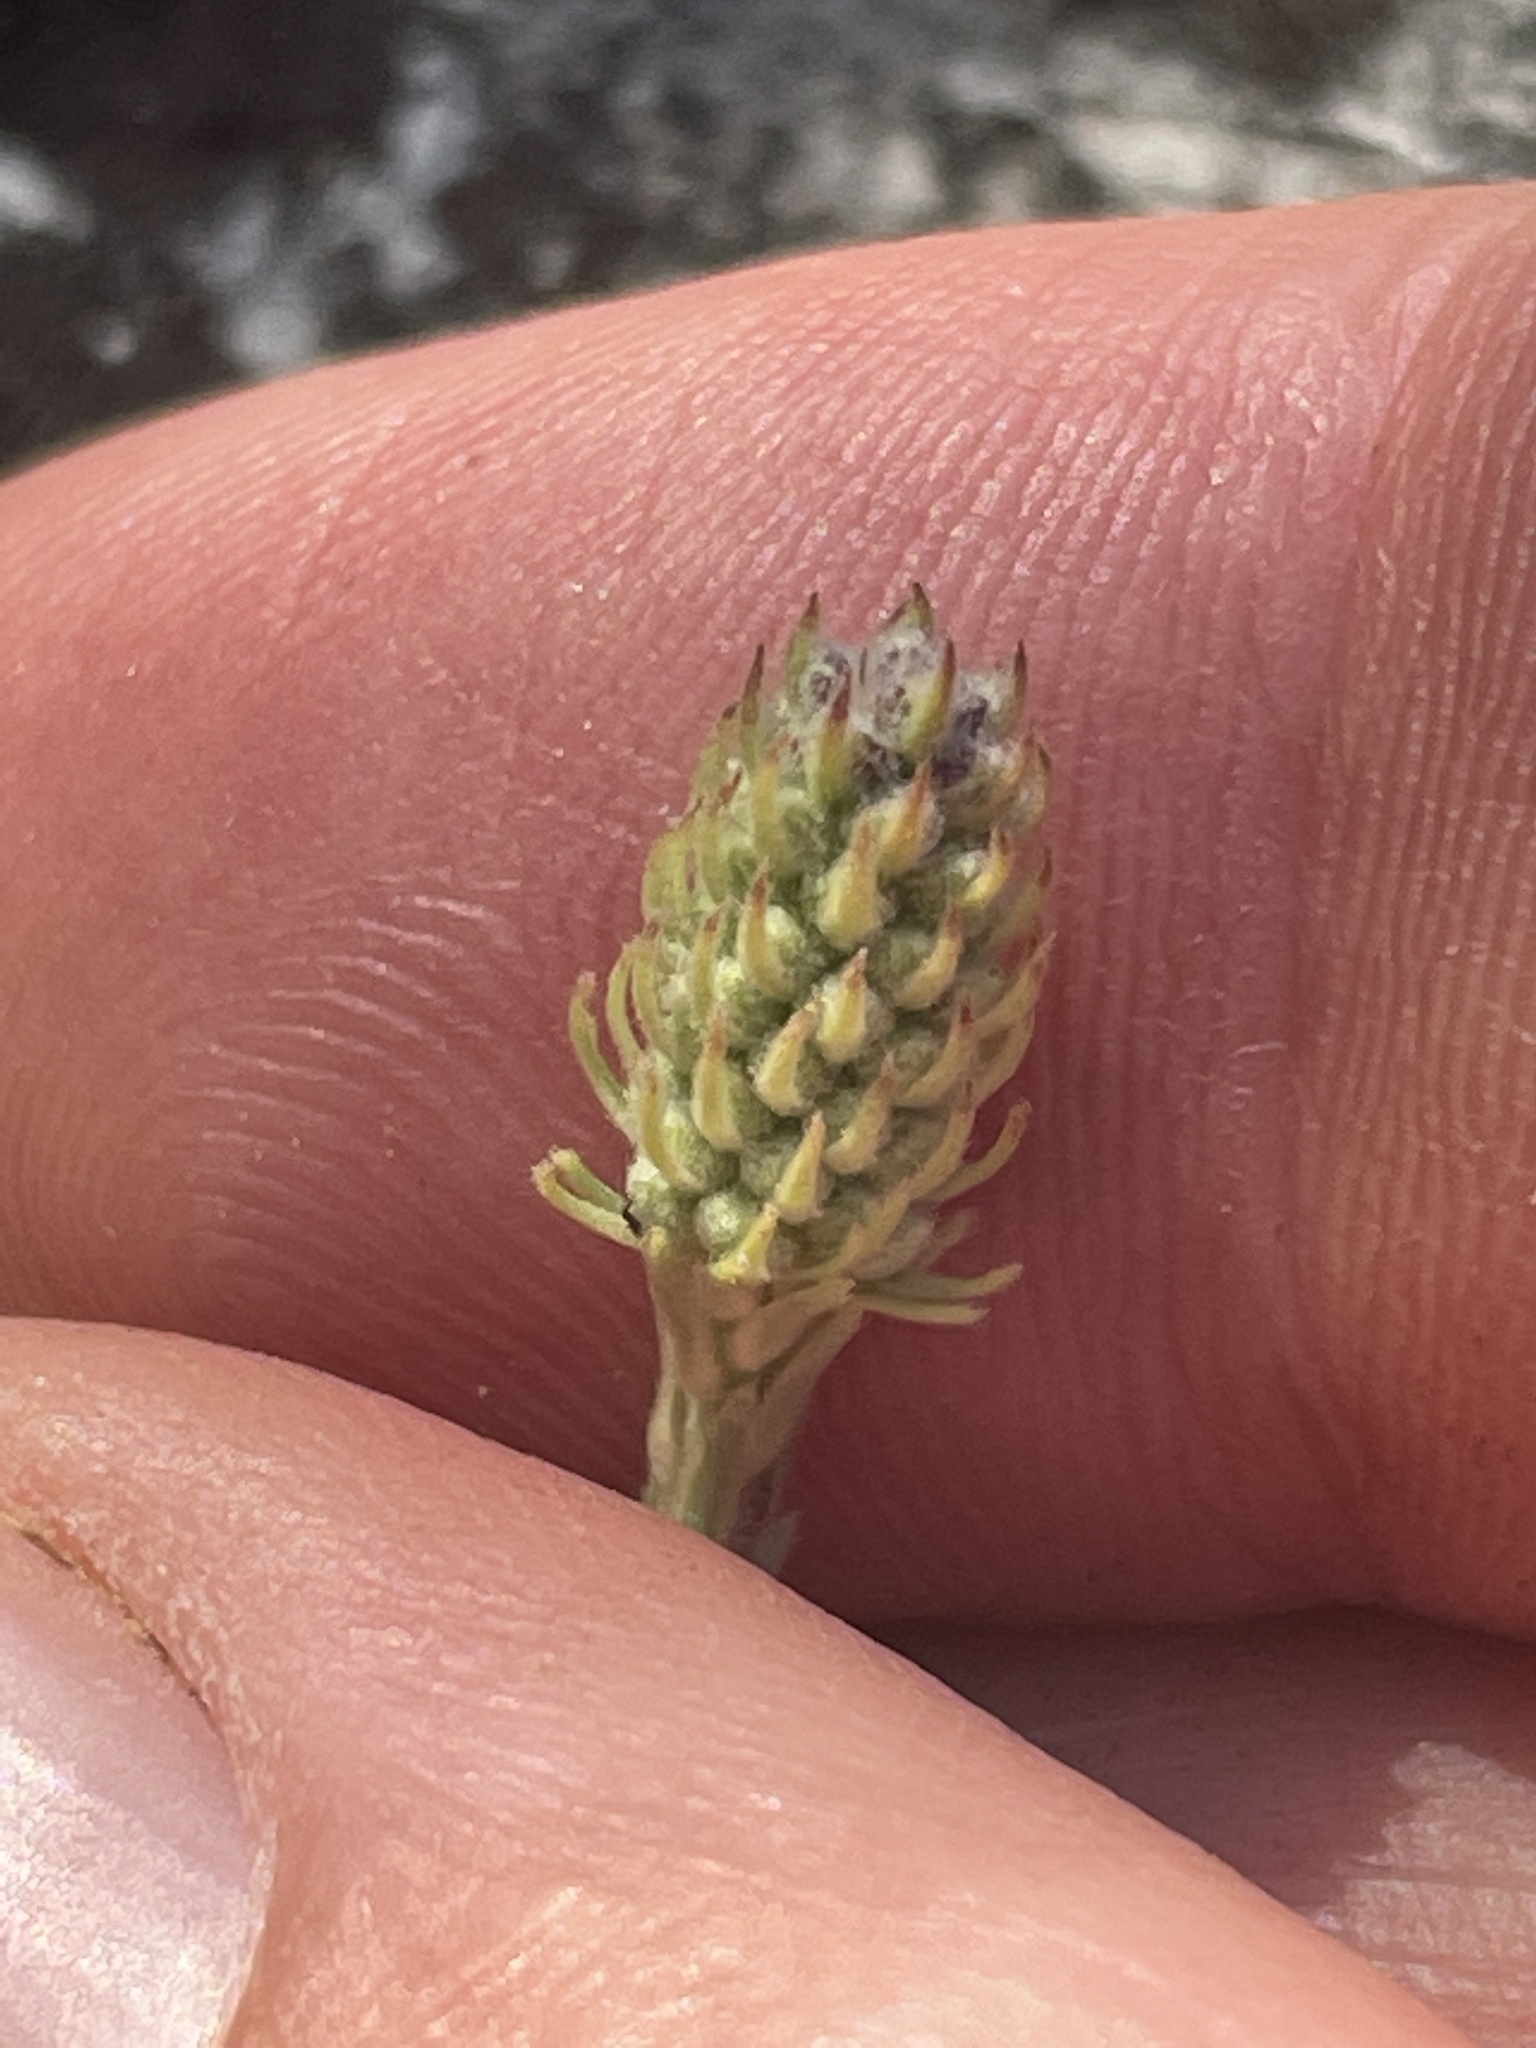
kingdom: Plantae
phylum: Tracheophyta
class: Magnoliopsida
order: Rosales
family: Rosaceae
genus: Petrophytum
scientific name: Petrophytum caespitosum
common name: Mat rockspirea
